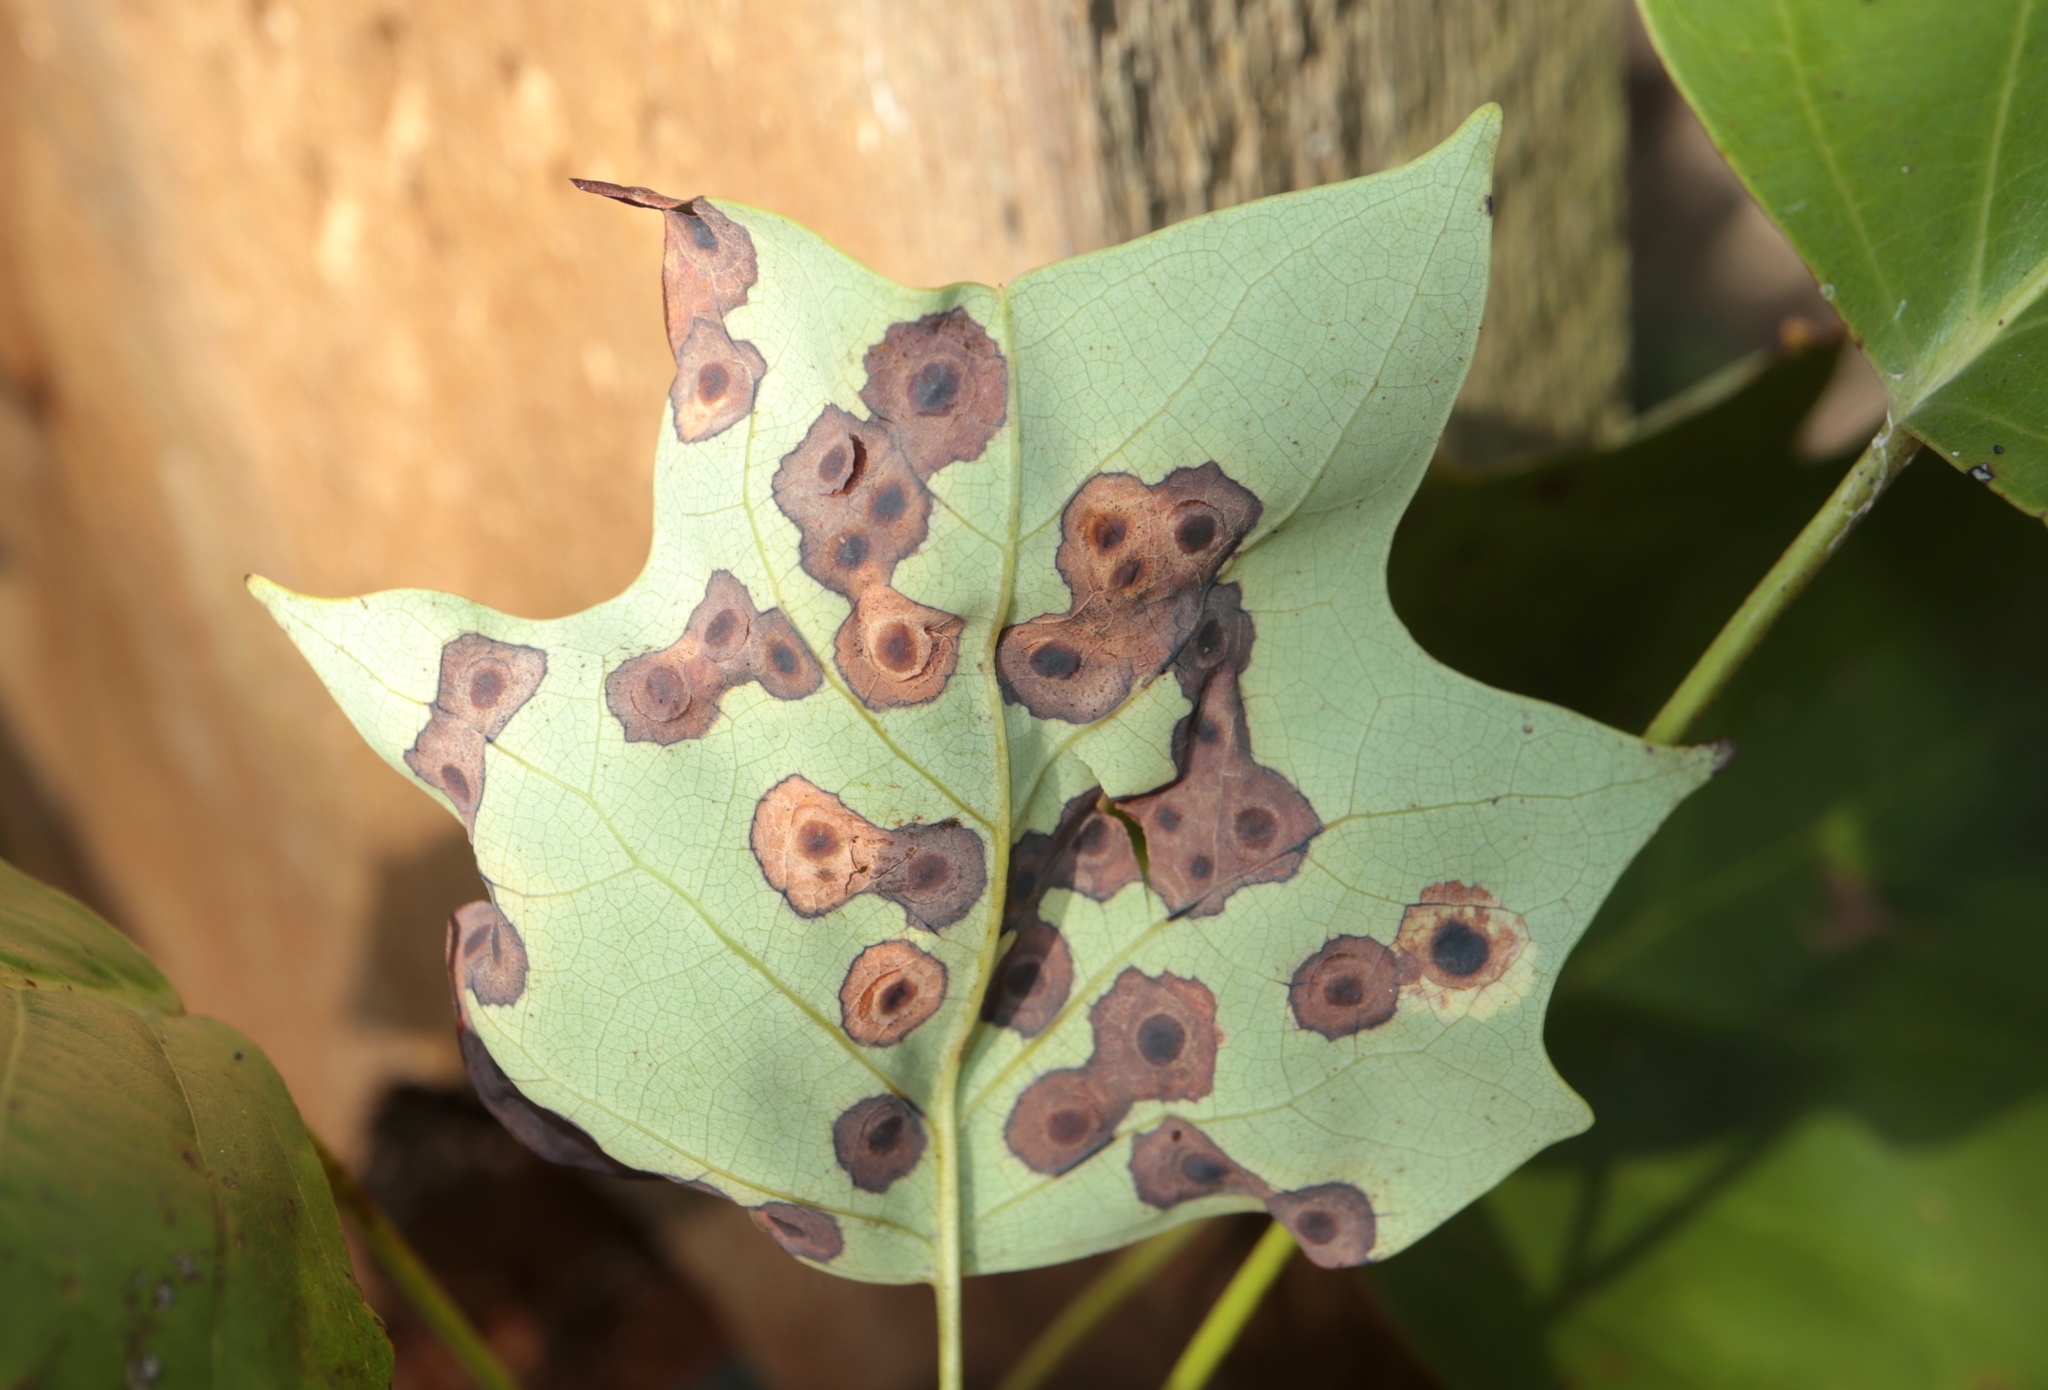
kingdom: Animalia
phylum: Arthropoda
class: Insecta
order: Diptera
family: Cecidomyiidae
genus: Resseliella
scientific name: Resseliella liriodendri
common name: Tulip tree leaf spot gall midge
